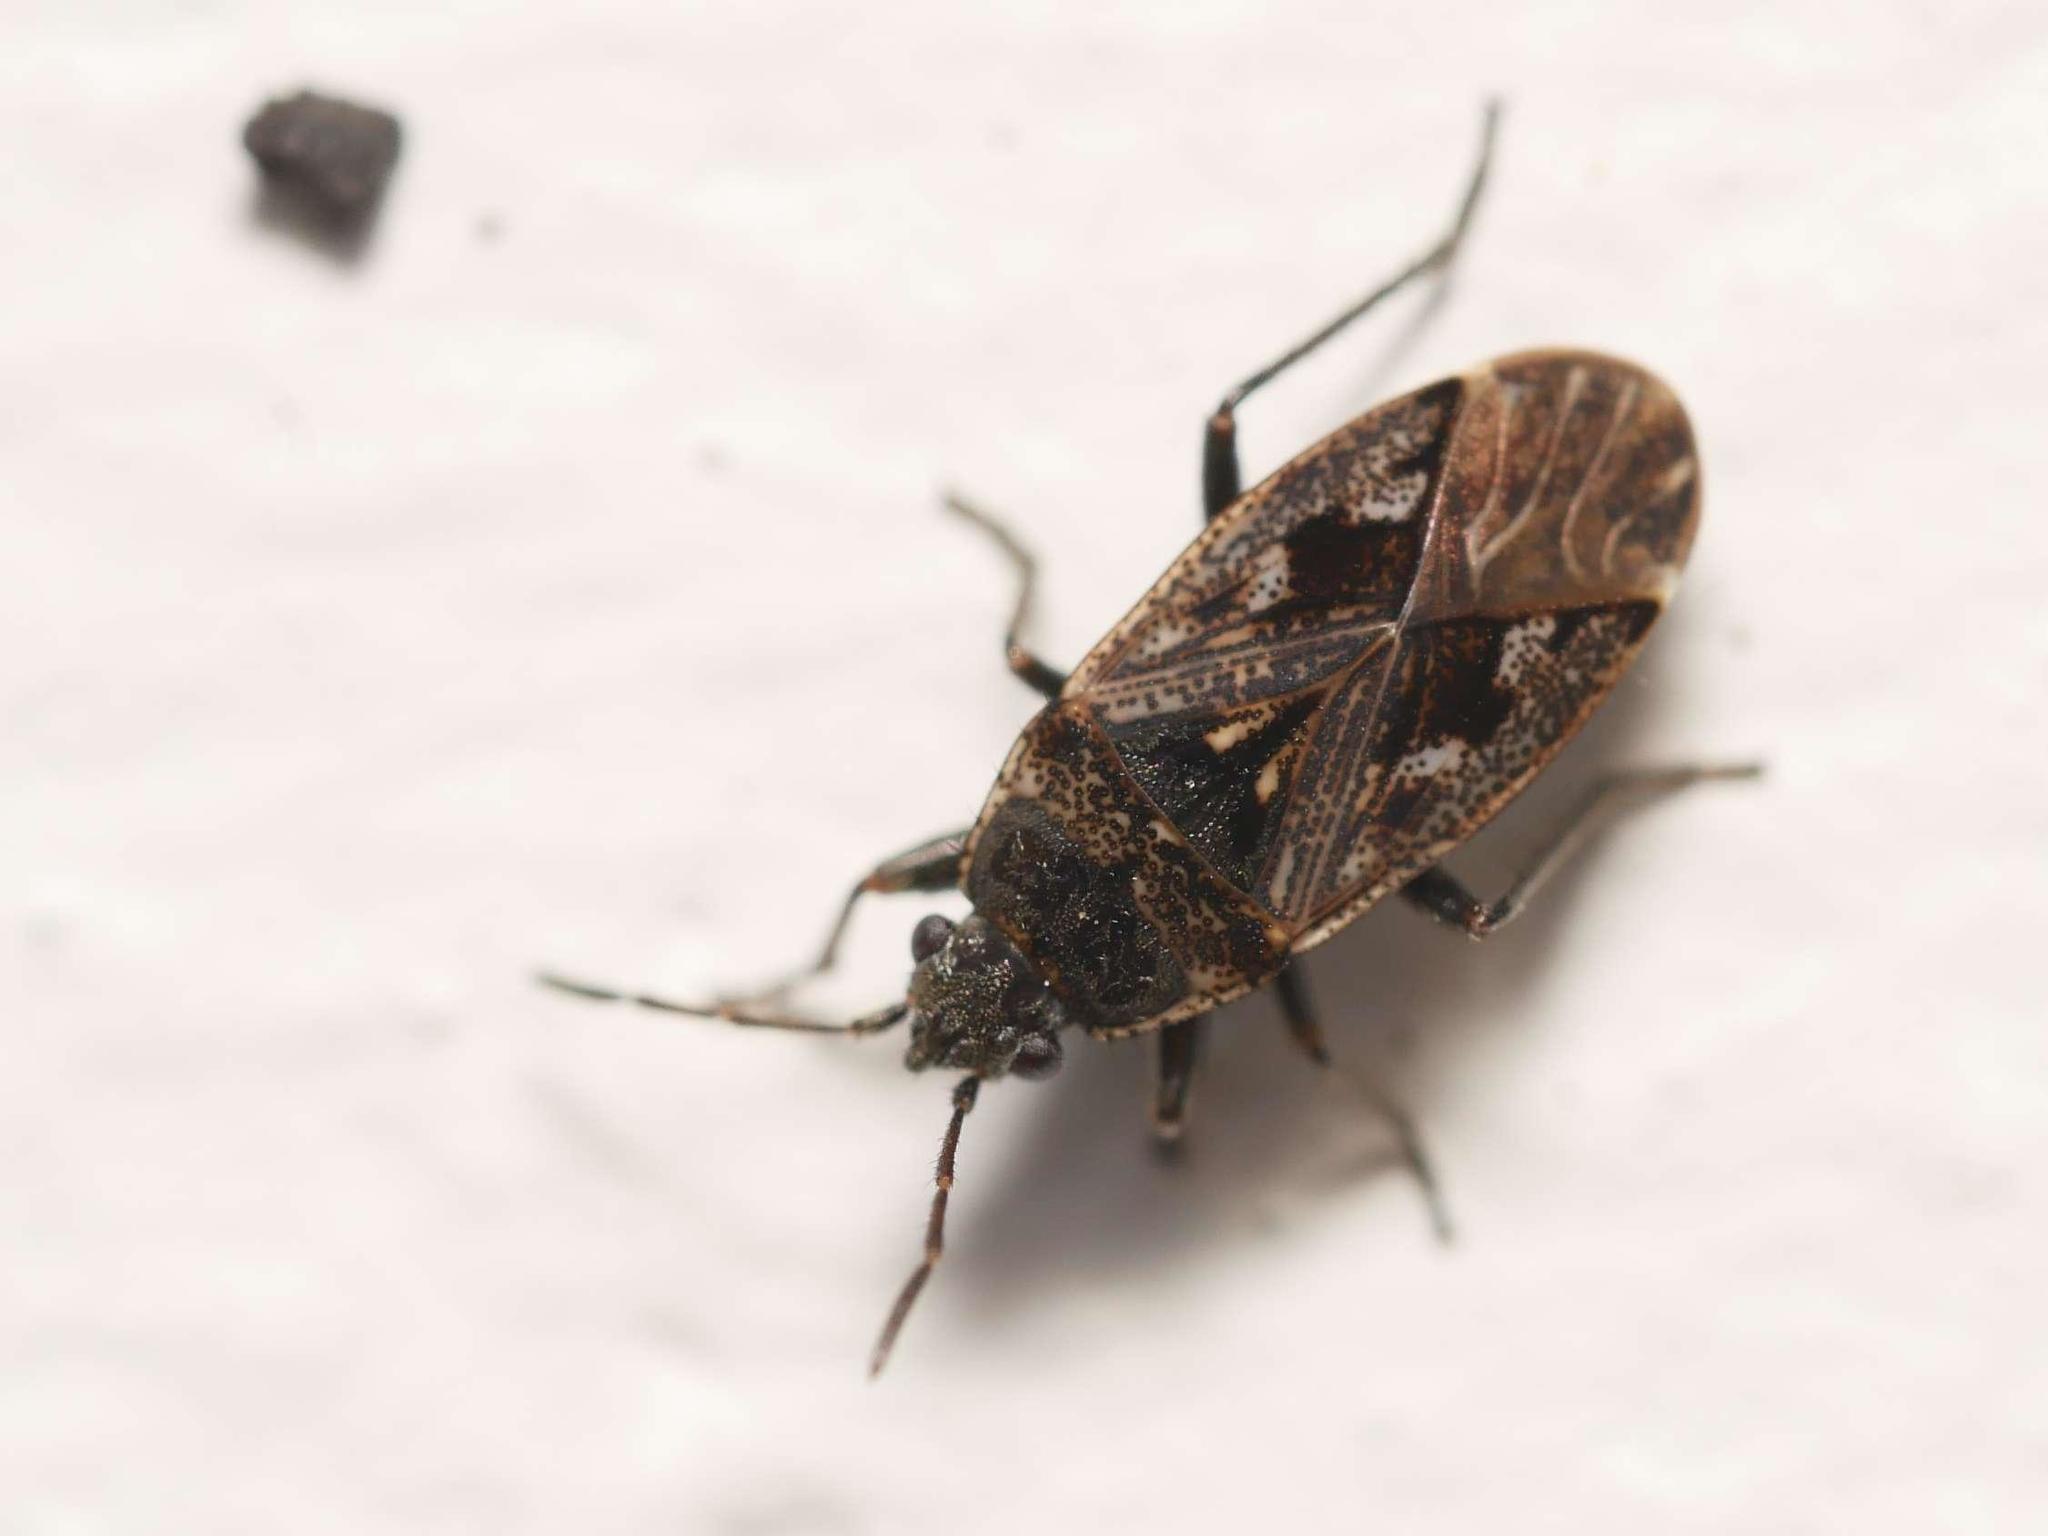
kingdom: Animalia
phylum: Arthropoda
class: Insecta
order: Hemiptera
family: Rhyparochromidae
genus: Sphragisticus
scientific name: Sphragisticus nebulosus
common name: Dirt-colored seed bug
